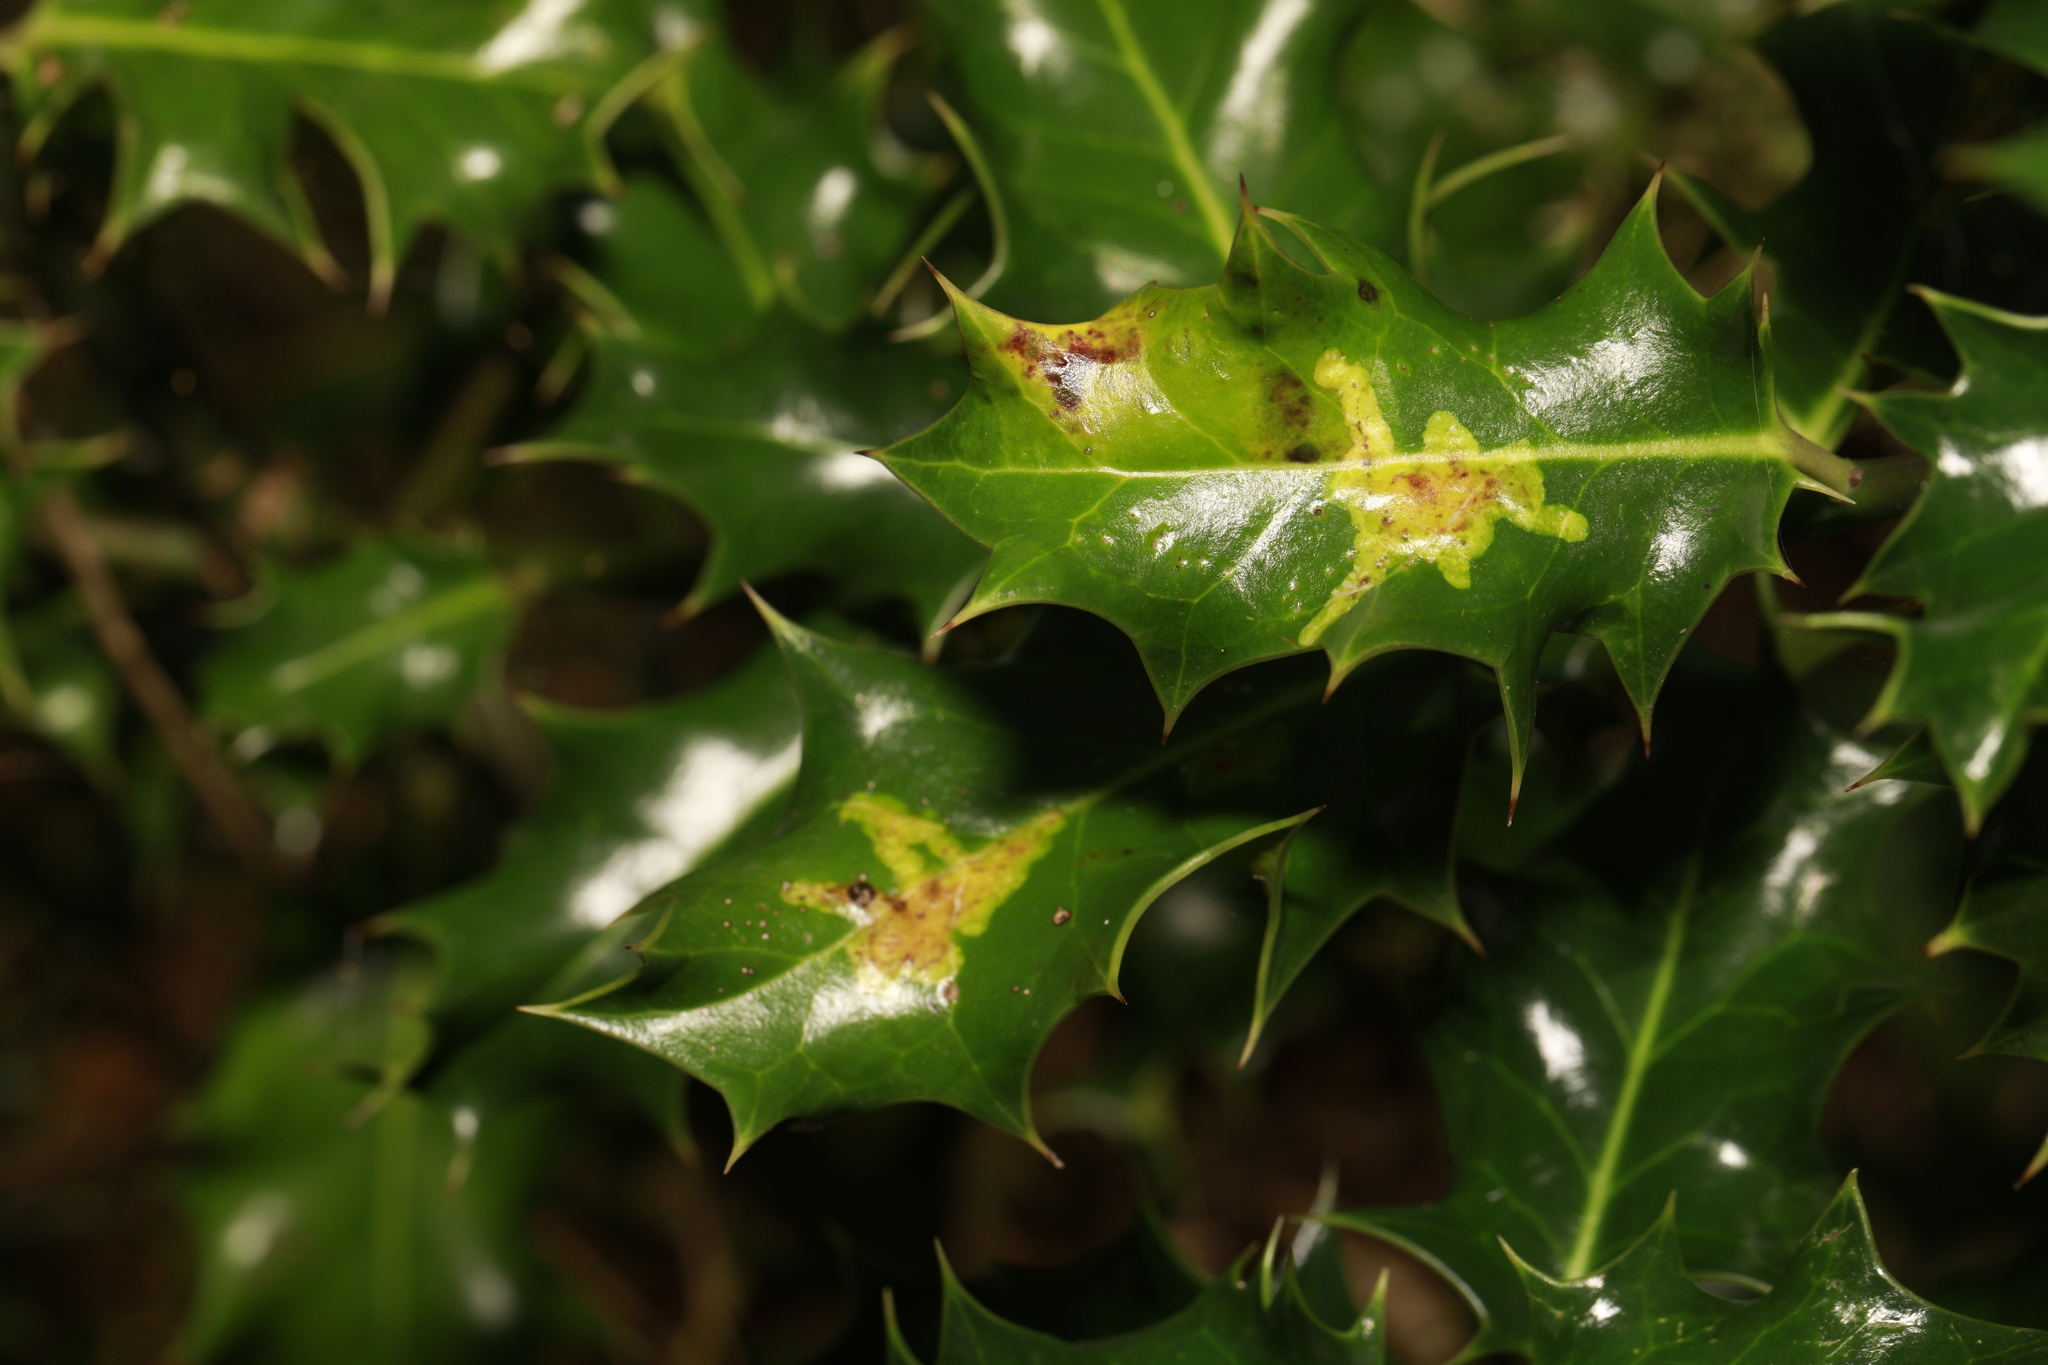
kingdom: Animalia
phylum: Arthropoda
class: Insecta
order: Diptera
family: Agromyzidae
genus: Phytomyza
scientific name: Phytomyza ilicis
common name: Holly leafminer
